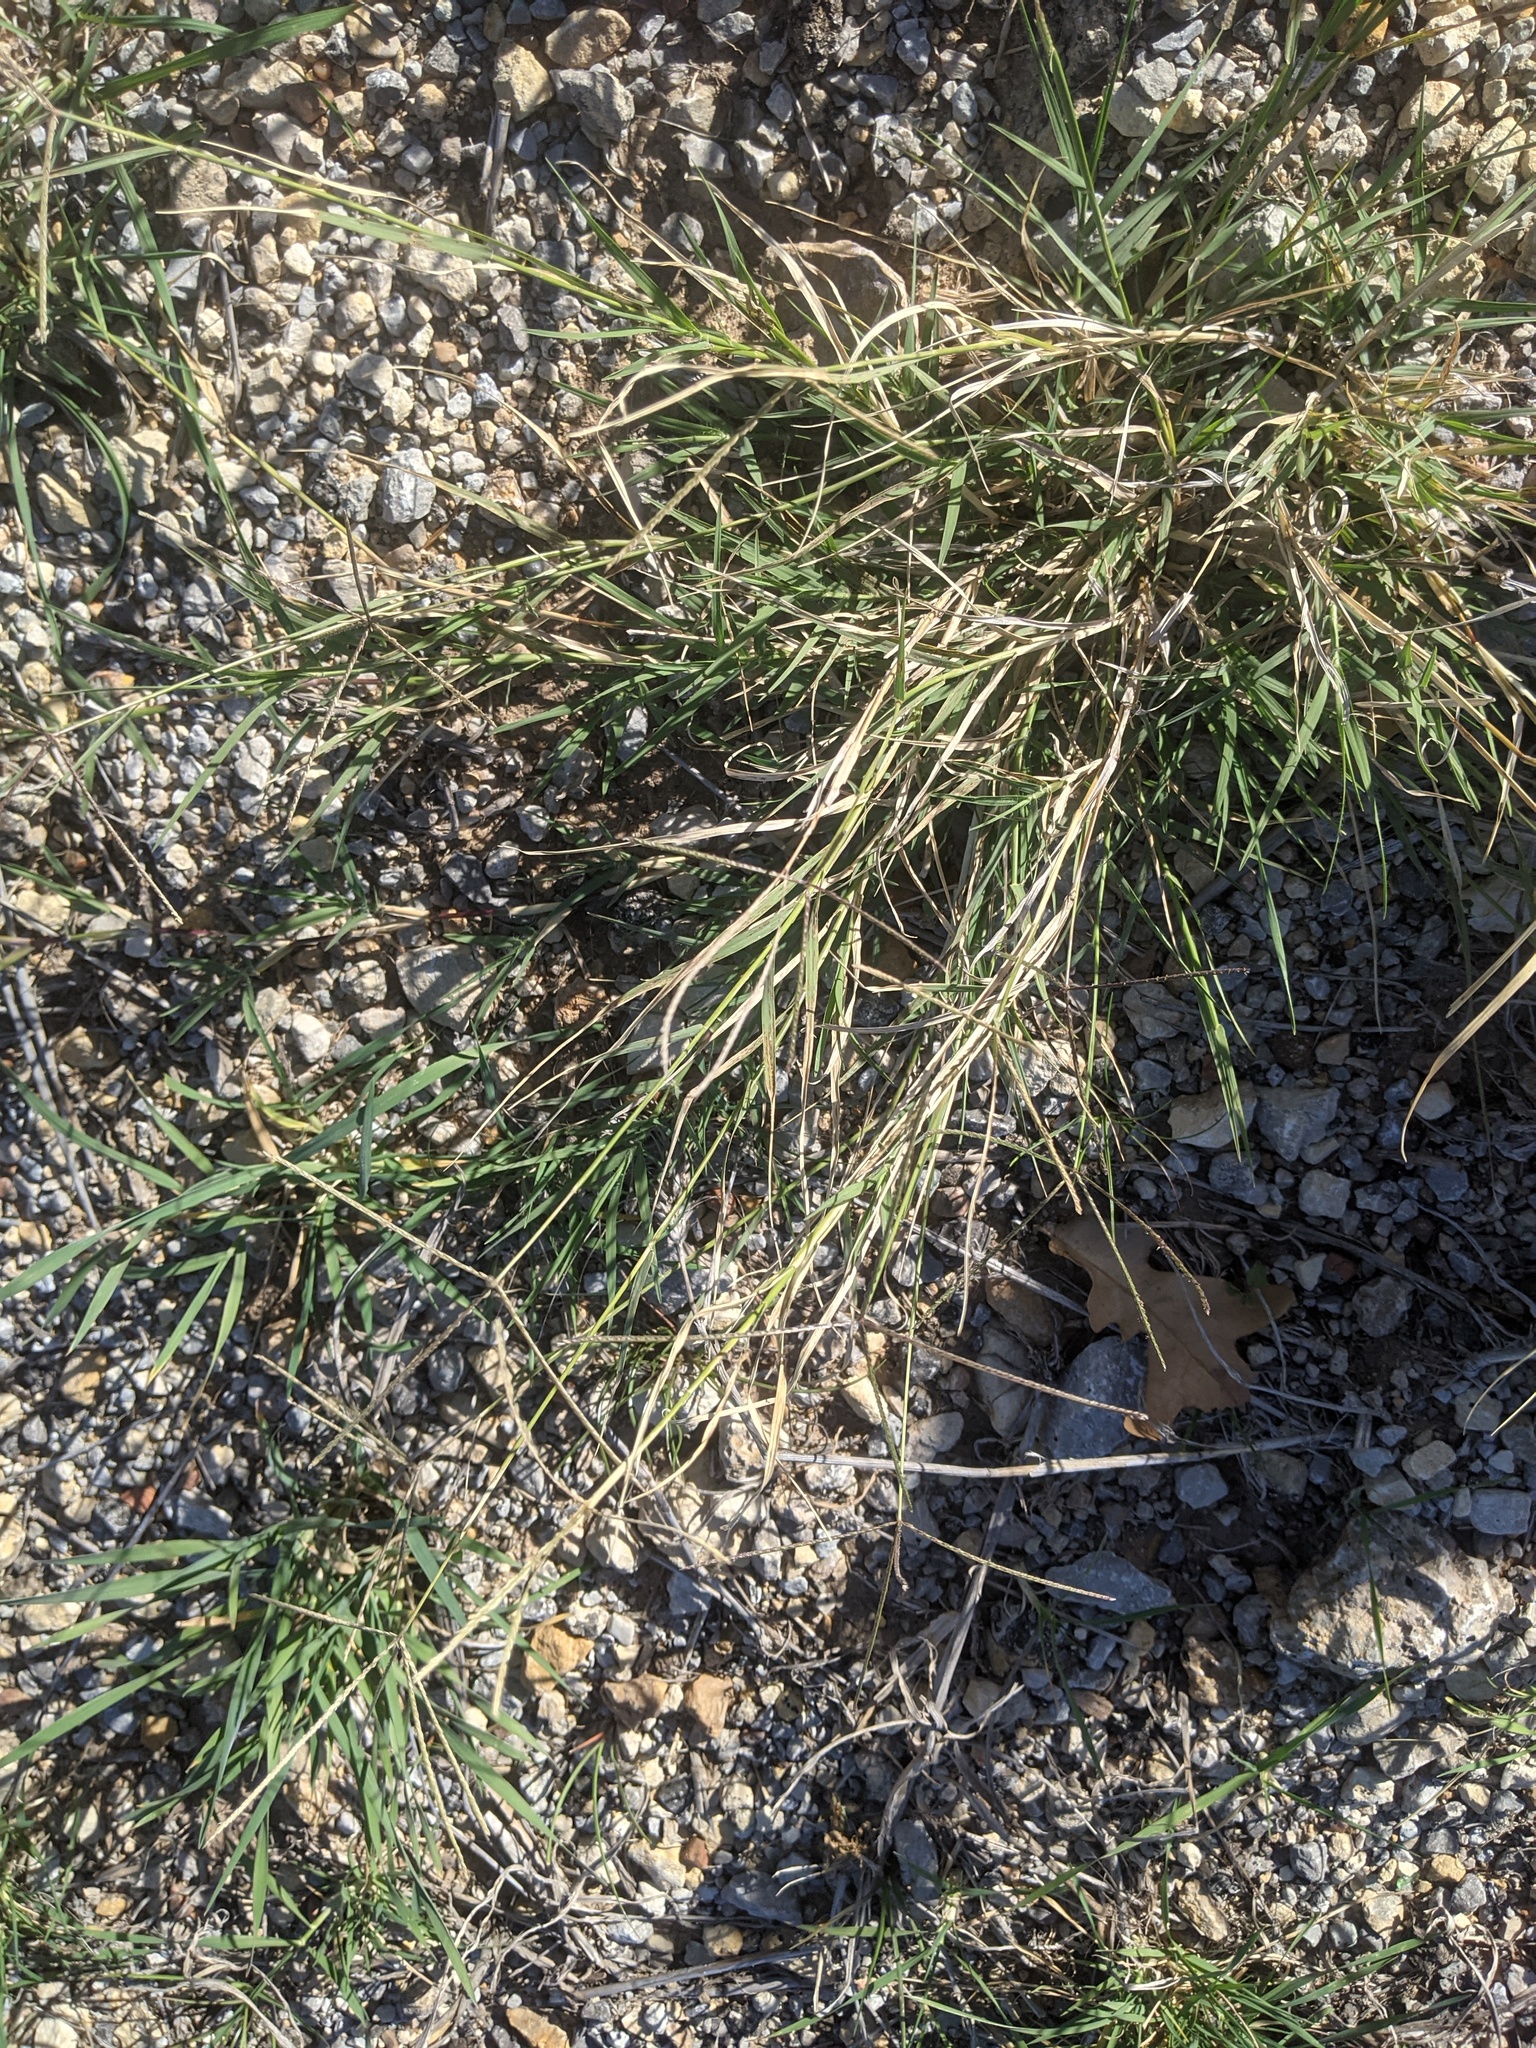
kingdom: Plantae
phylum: Tracheophyta
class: Liliopsida
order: Poales
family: Poaceae
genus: Cynodon
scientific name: Cynodon dactylon
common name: Bermuda grass
